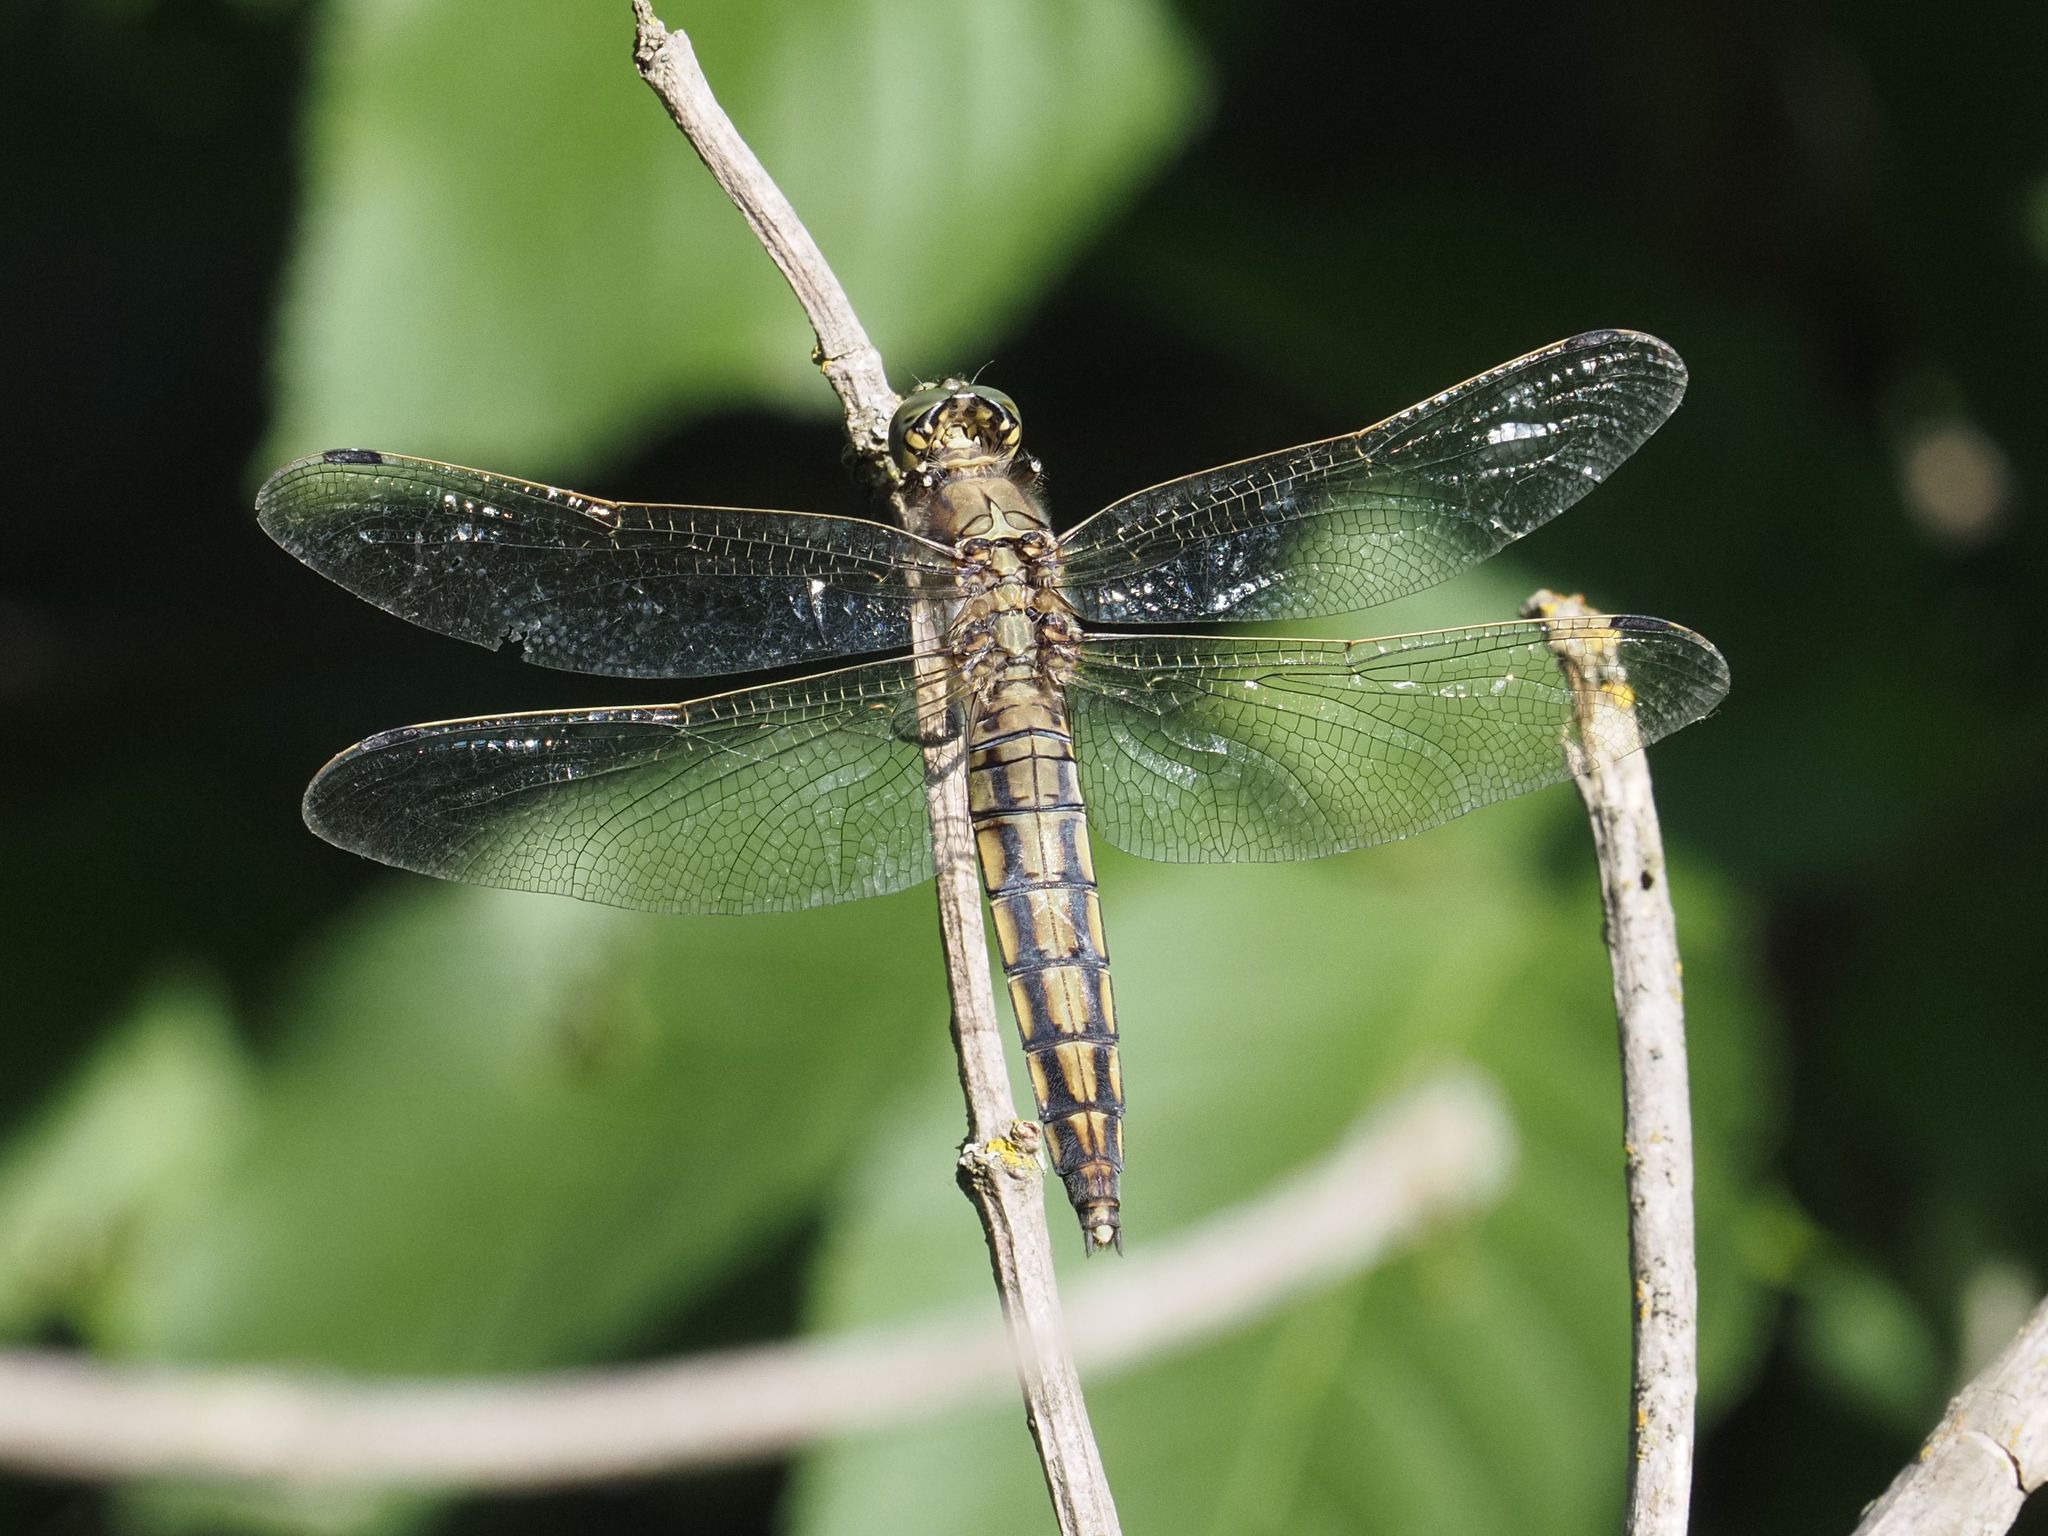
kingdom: Animalia
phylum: Arthropoda
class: Insecta
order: Odonata
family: Libellulidae
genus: Orthetrum
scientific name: Orthetrum cancellatum
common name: Black-tailed skimmer
